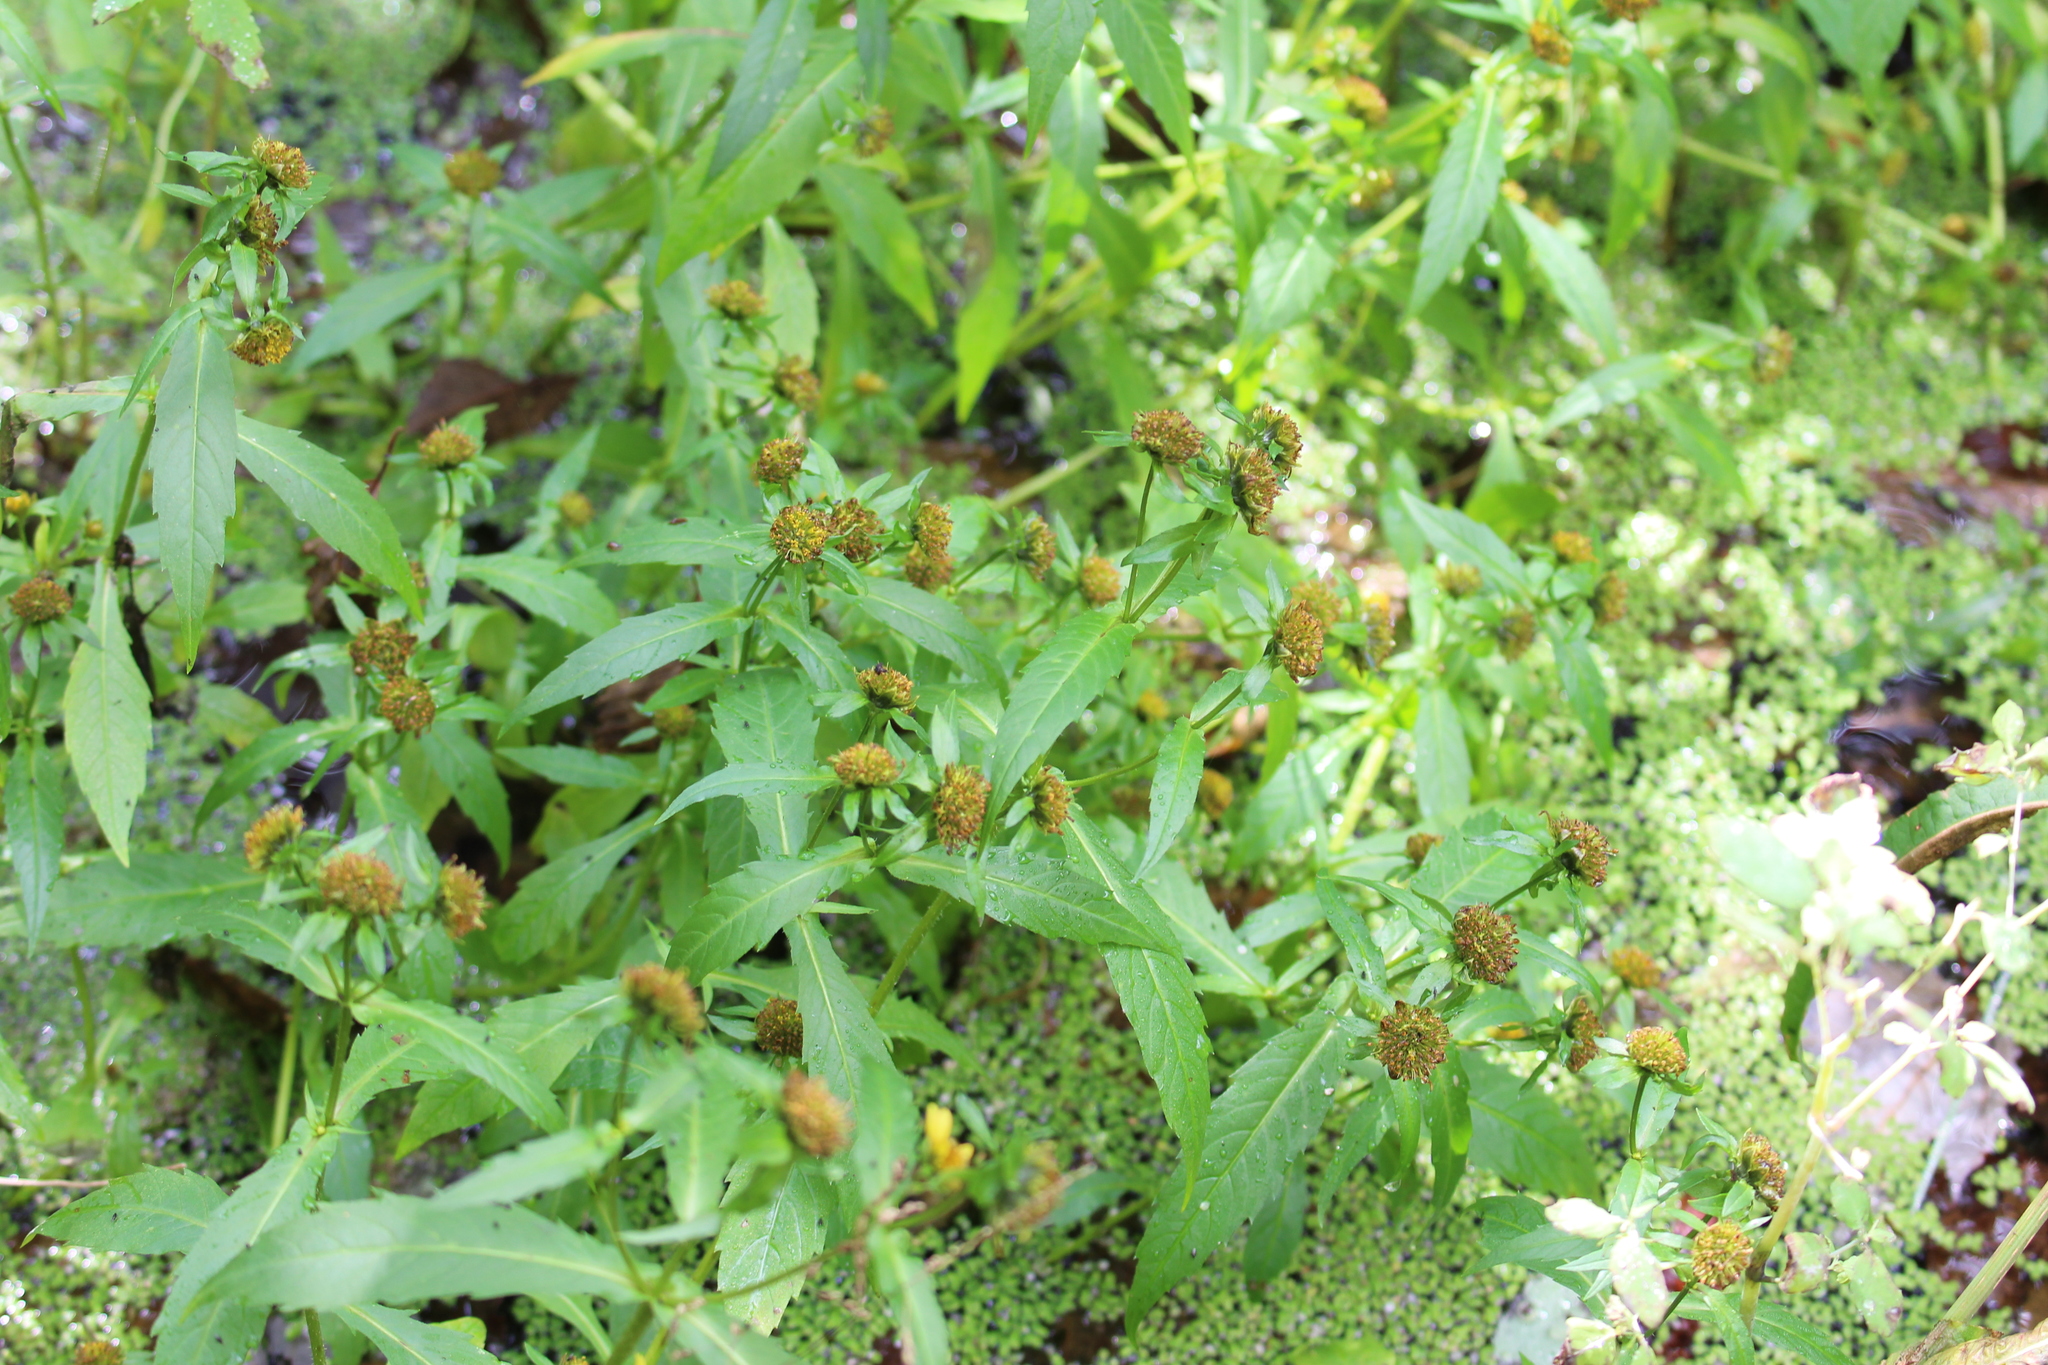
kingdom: Plantae
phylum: Tracheophyta
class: Magnoliopsida
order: Asterales
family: Asteraceae
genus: Bidens
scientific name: Bidens cernua
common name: Nodding bur-marigold
